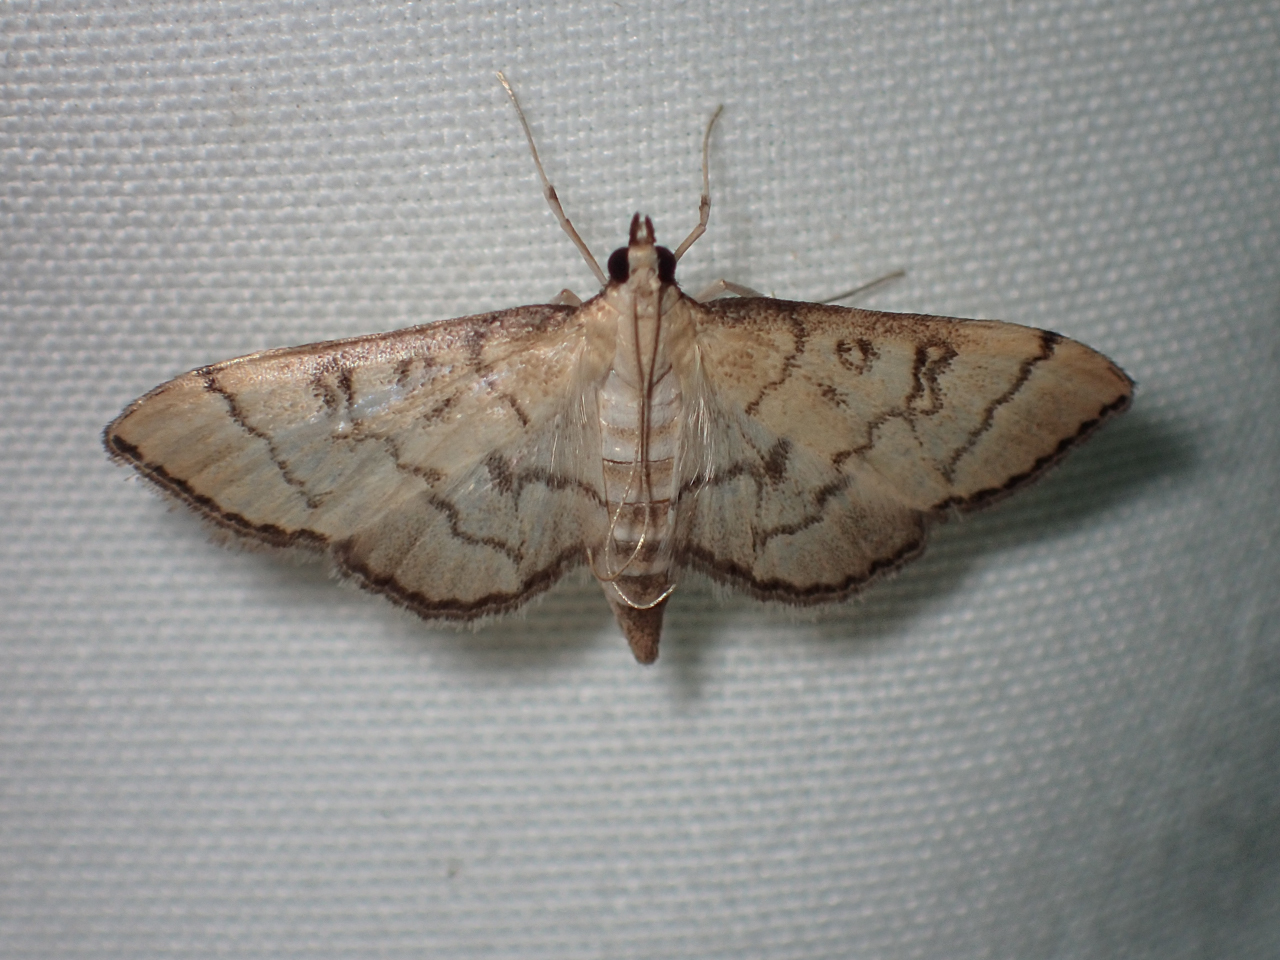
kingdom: Animalia
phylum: Arthropoda
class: Insecta
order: Lepidoptera
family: Crambidae
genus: Lamprosema
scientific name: Lamprosema Blepharomastix ranalis
